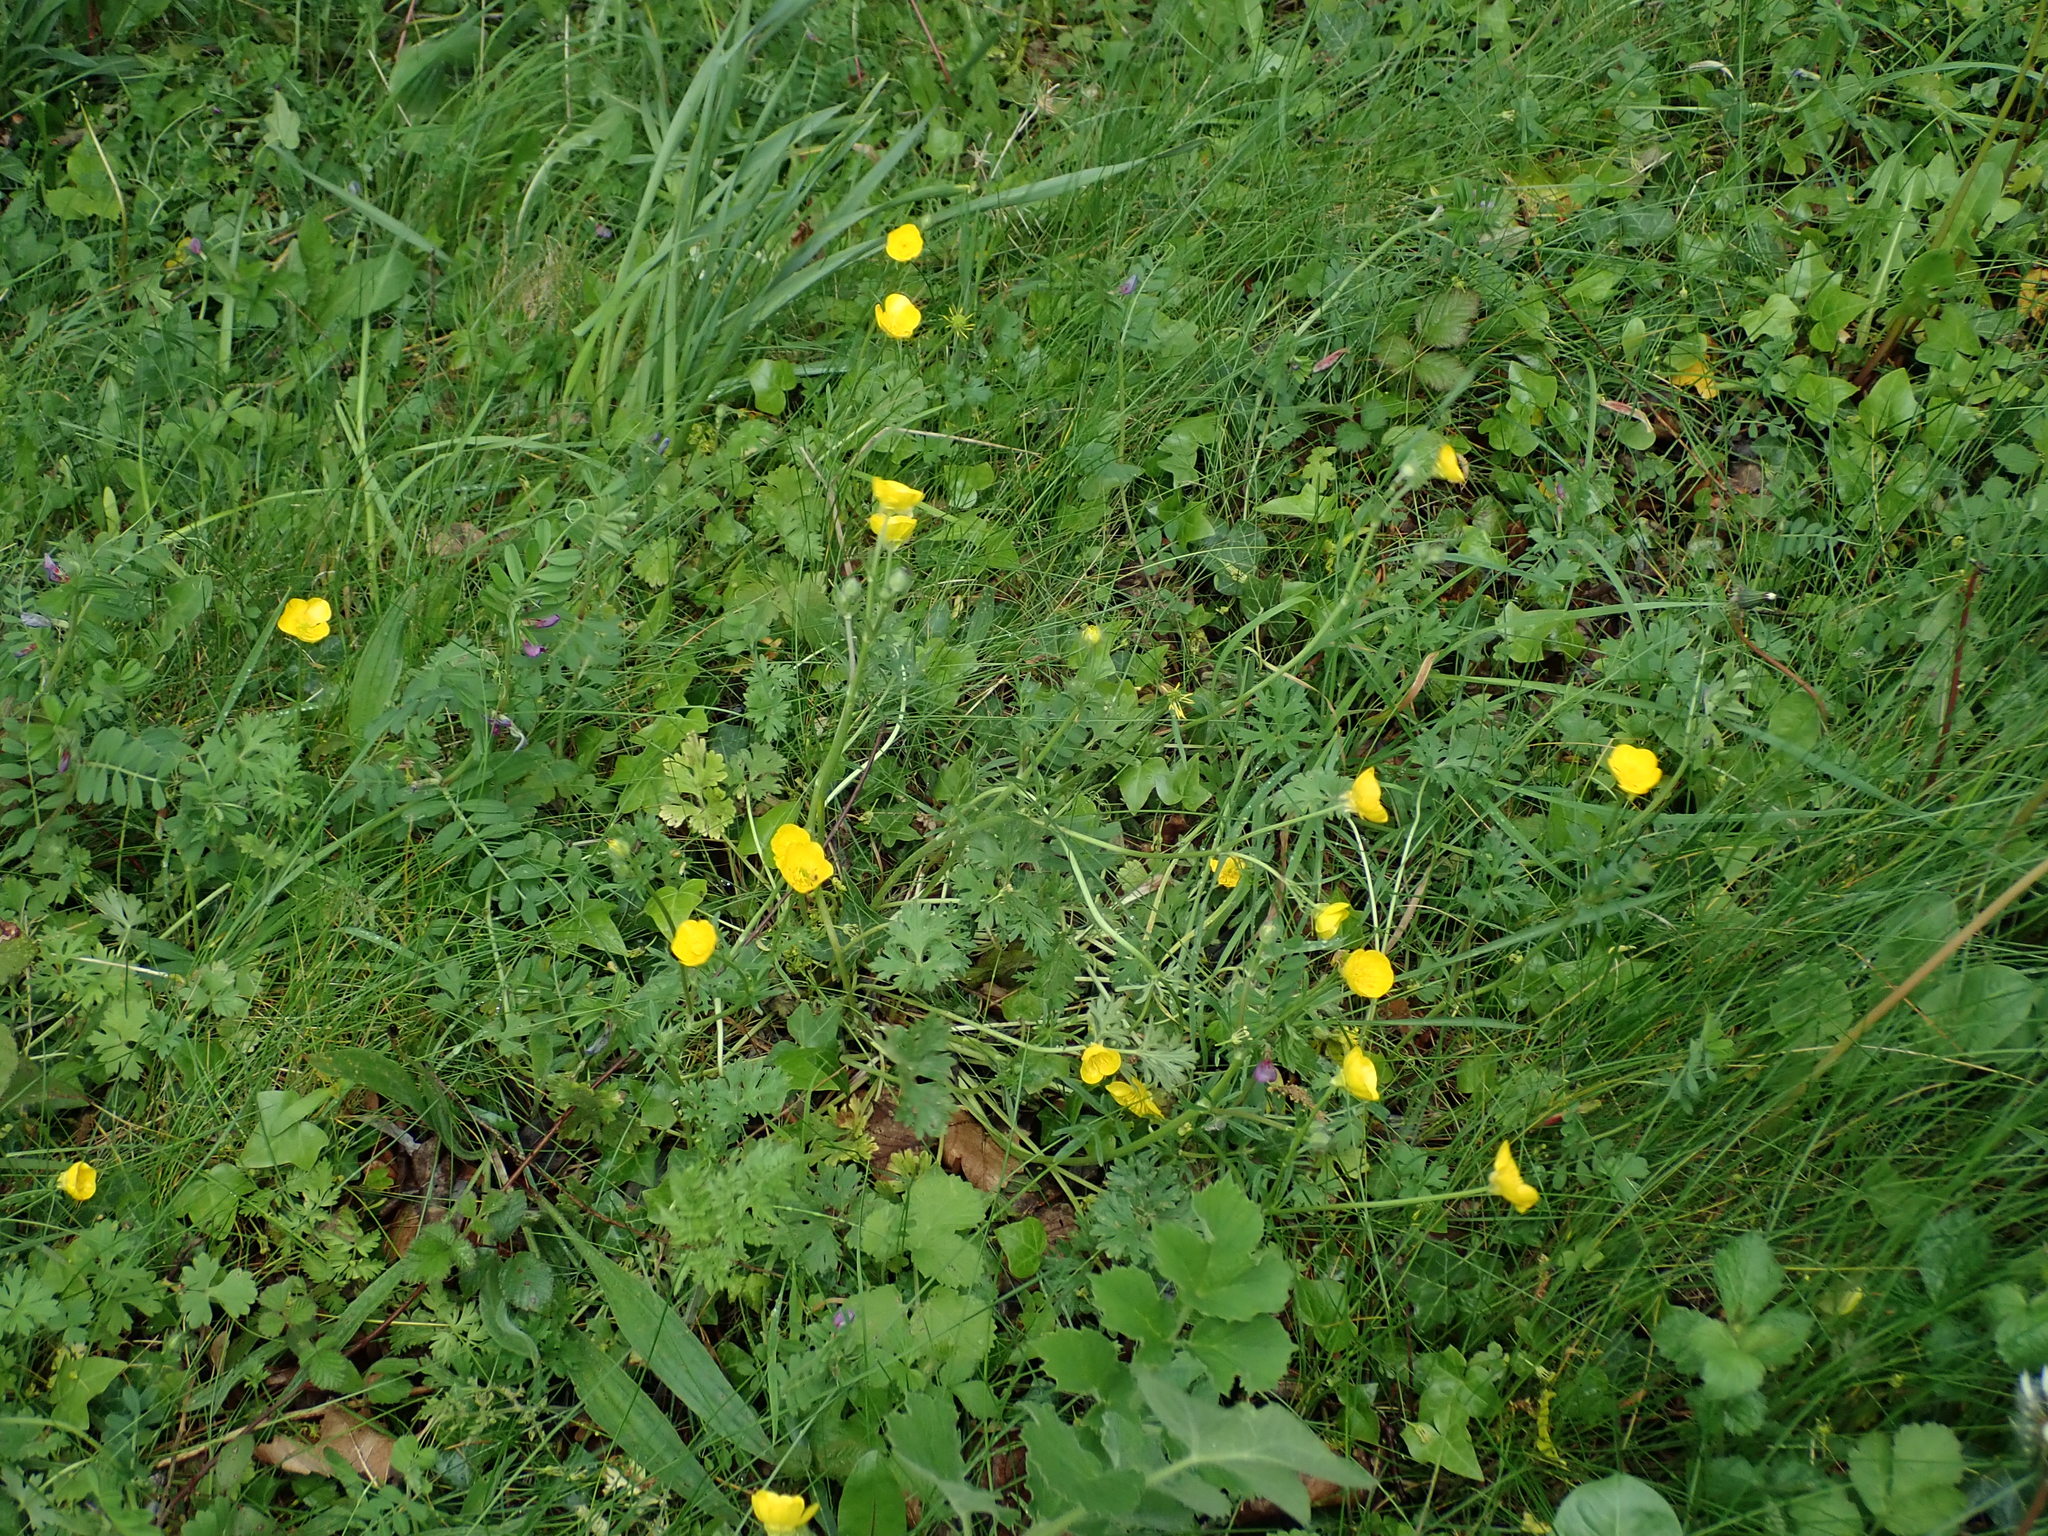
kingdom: Plantae
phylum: Tracheophyta
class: Magnoliopsida
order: Ranunculales
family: Ranunculaceae
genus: Ranunculus
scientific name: Ranunculus bulbosus
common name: Bulbous buttercup
